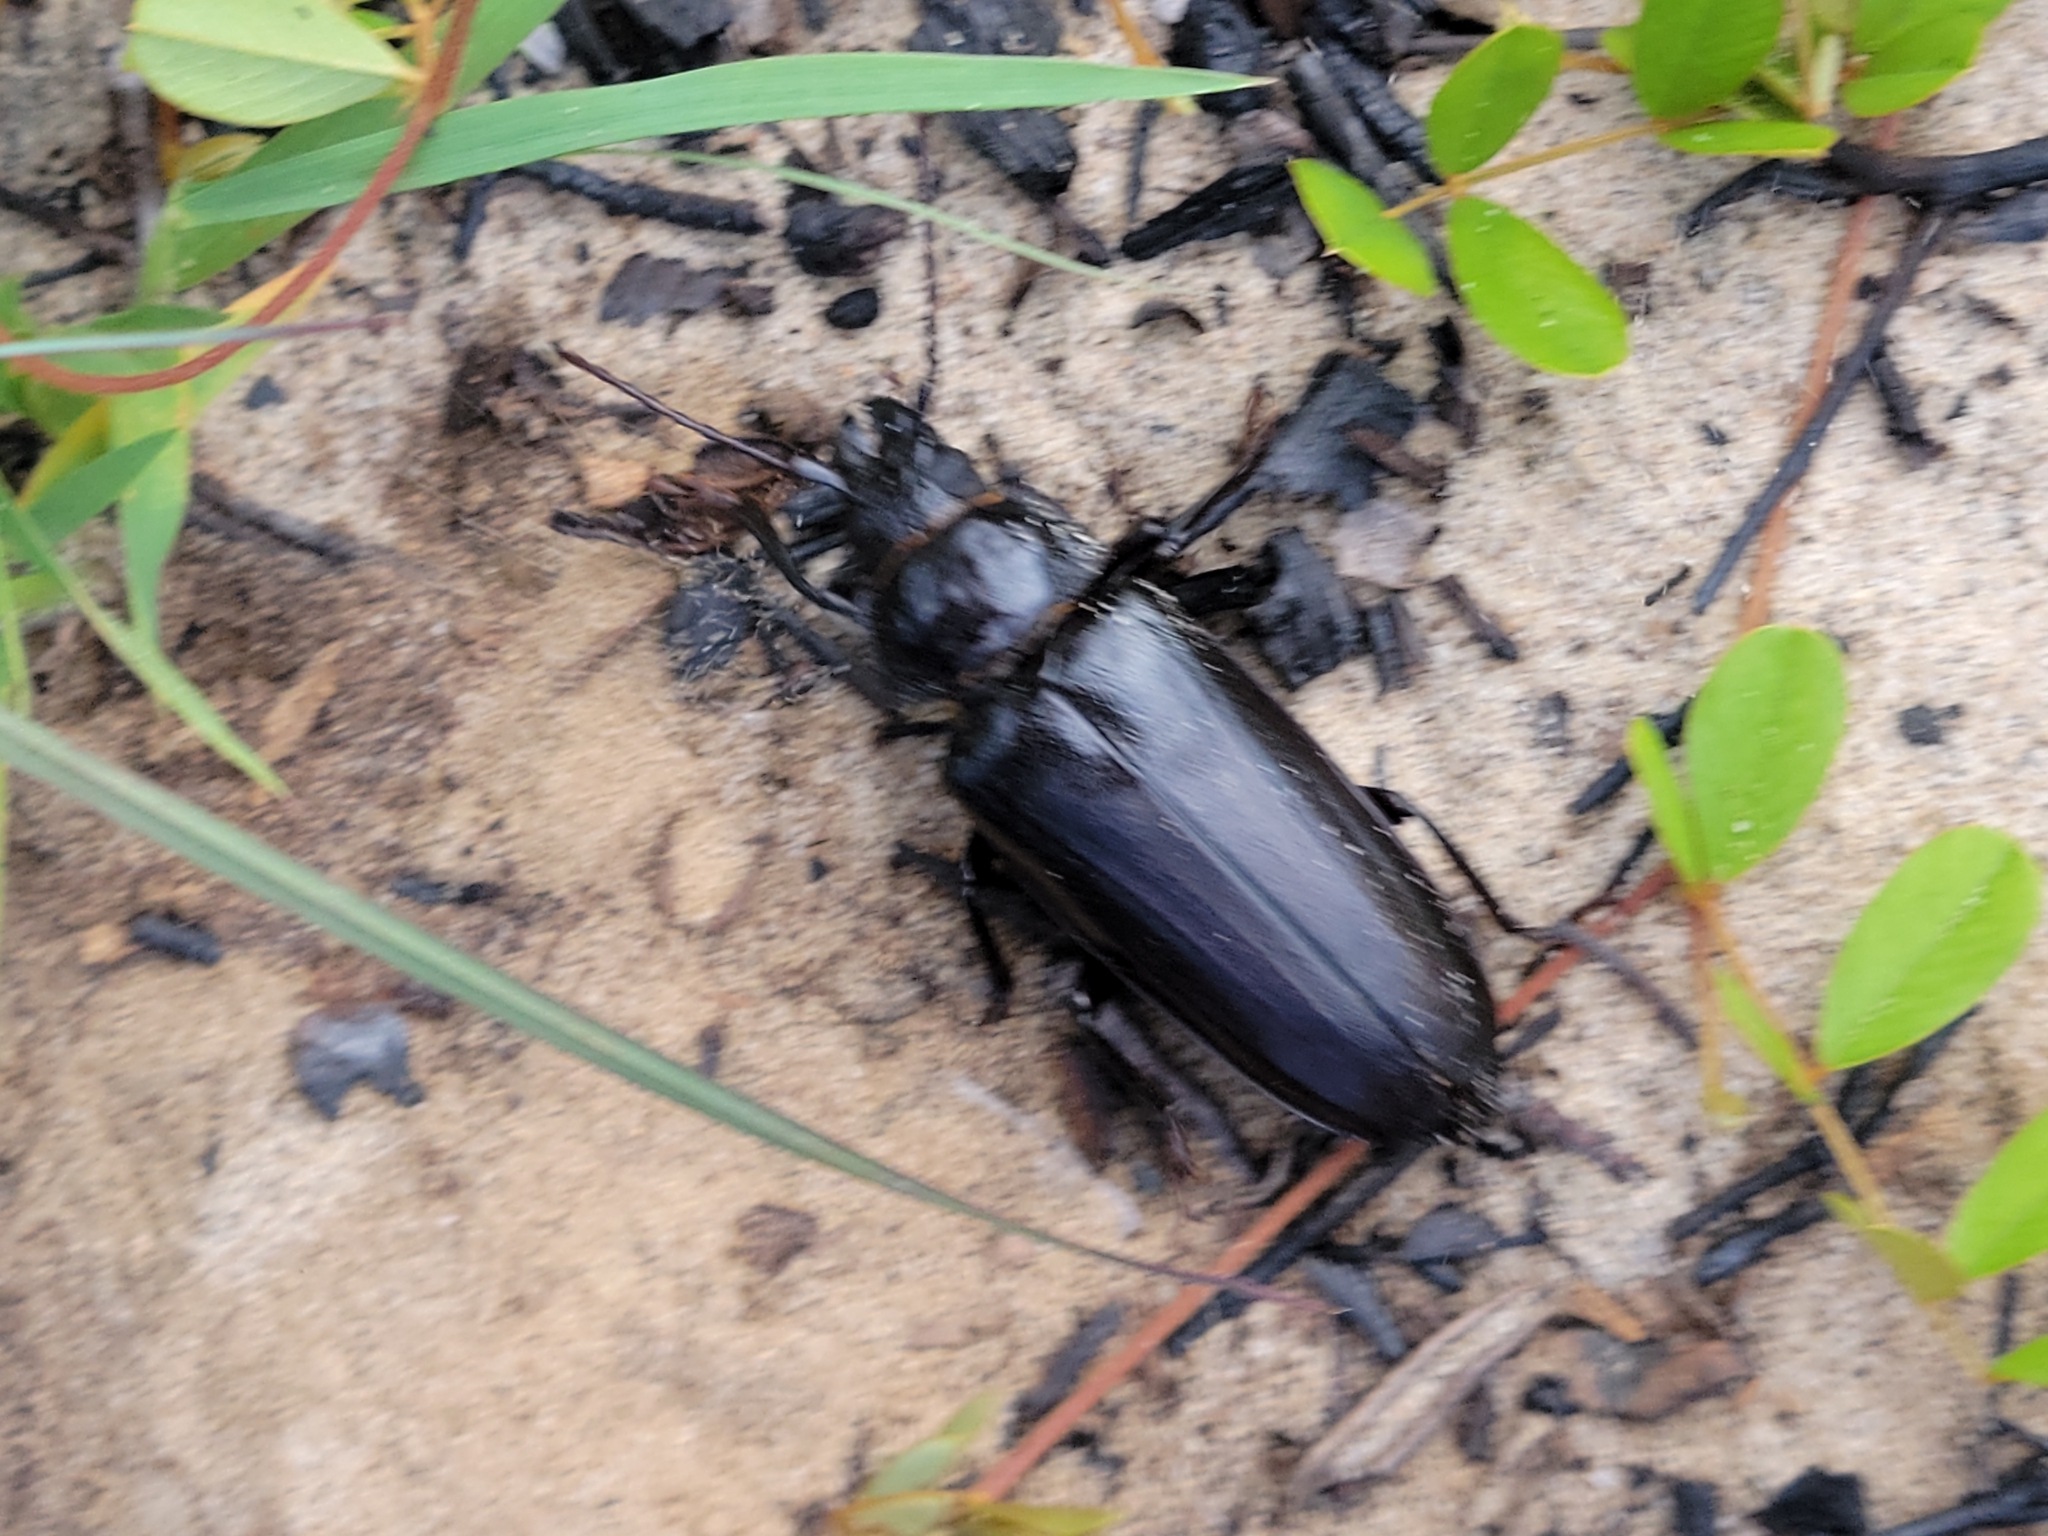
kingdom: Animalia
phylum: Arthropoda
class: Insecta
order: Coleoptera
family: Cerambycidae
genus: Archodontes
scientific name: Archodontes melanopus
